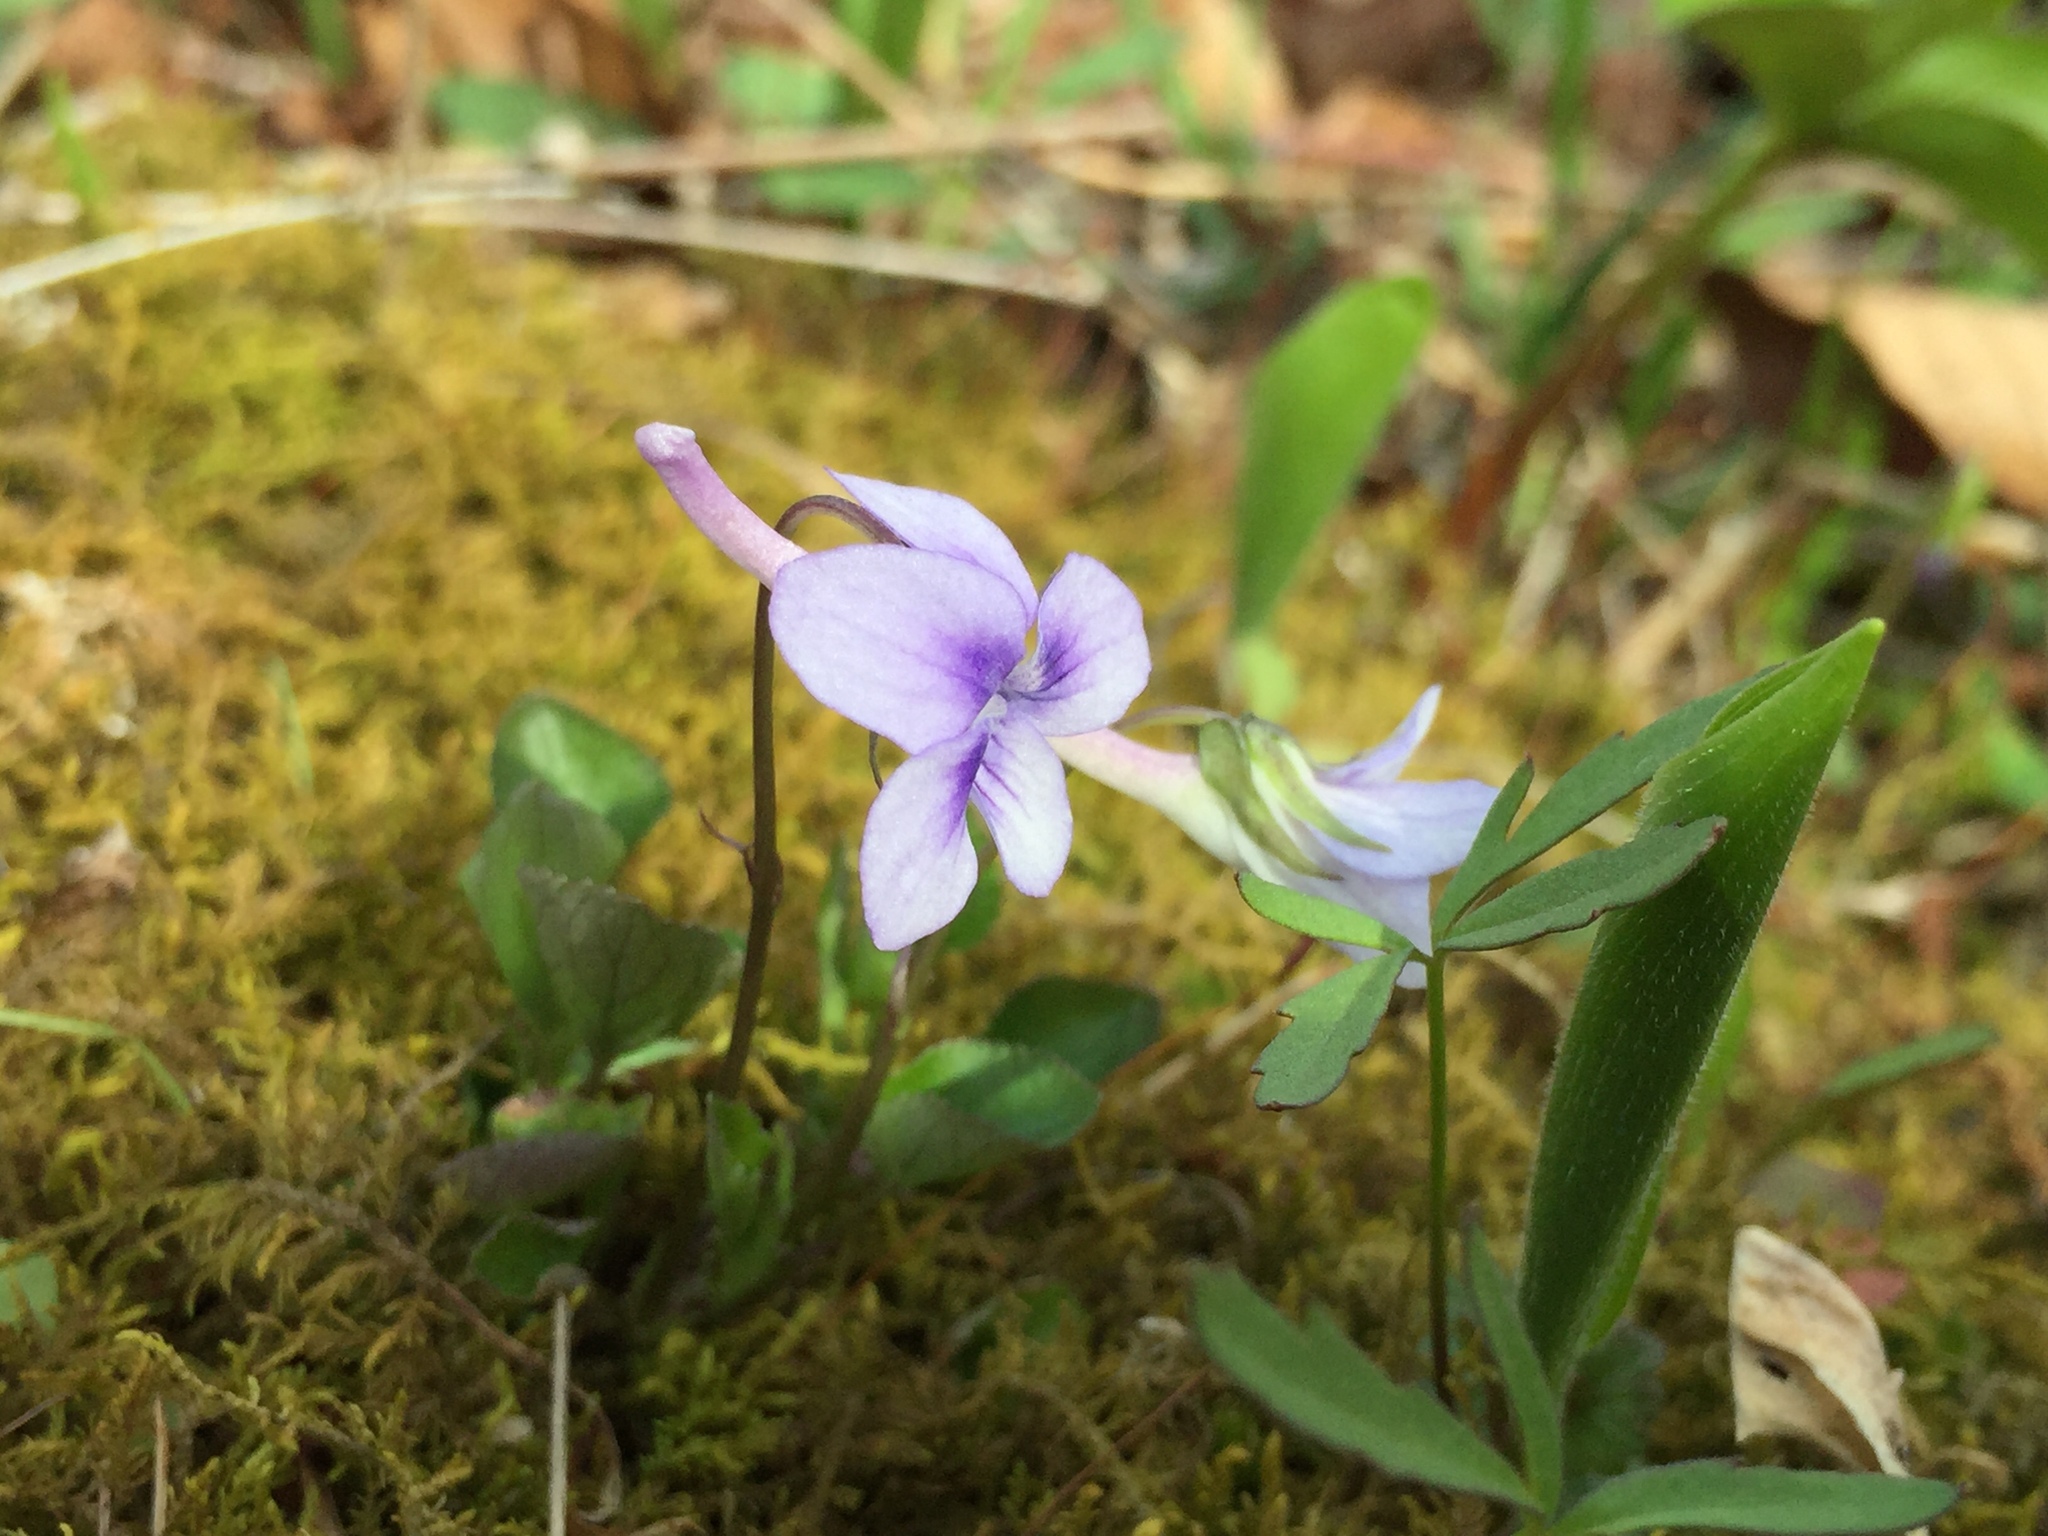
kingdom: Plantae
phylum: Tracheophyta
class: Magnoliopsida
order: Malpighiales
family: Violaceae
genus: Viola
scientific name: Viola rostrata
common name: Long-spur violet
